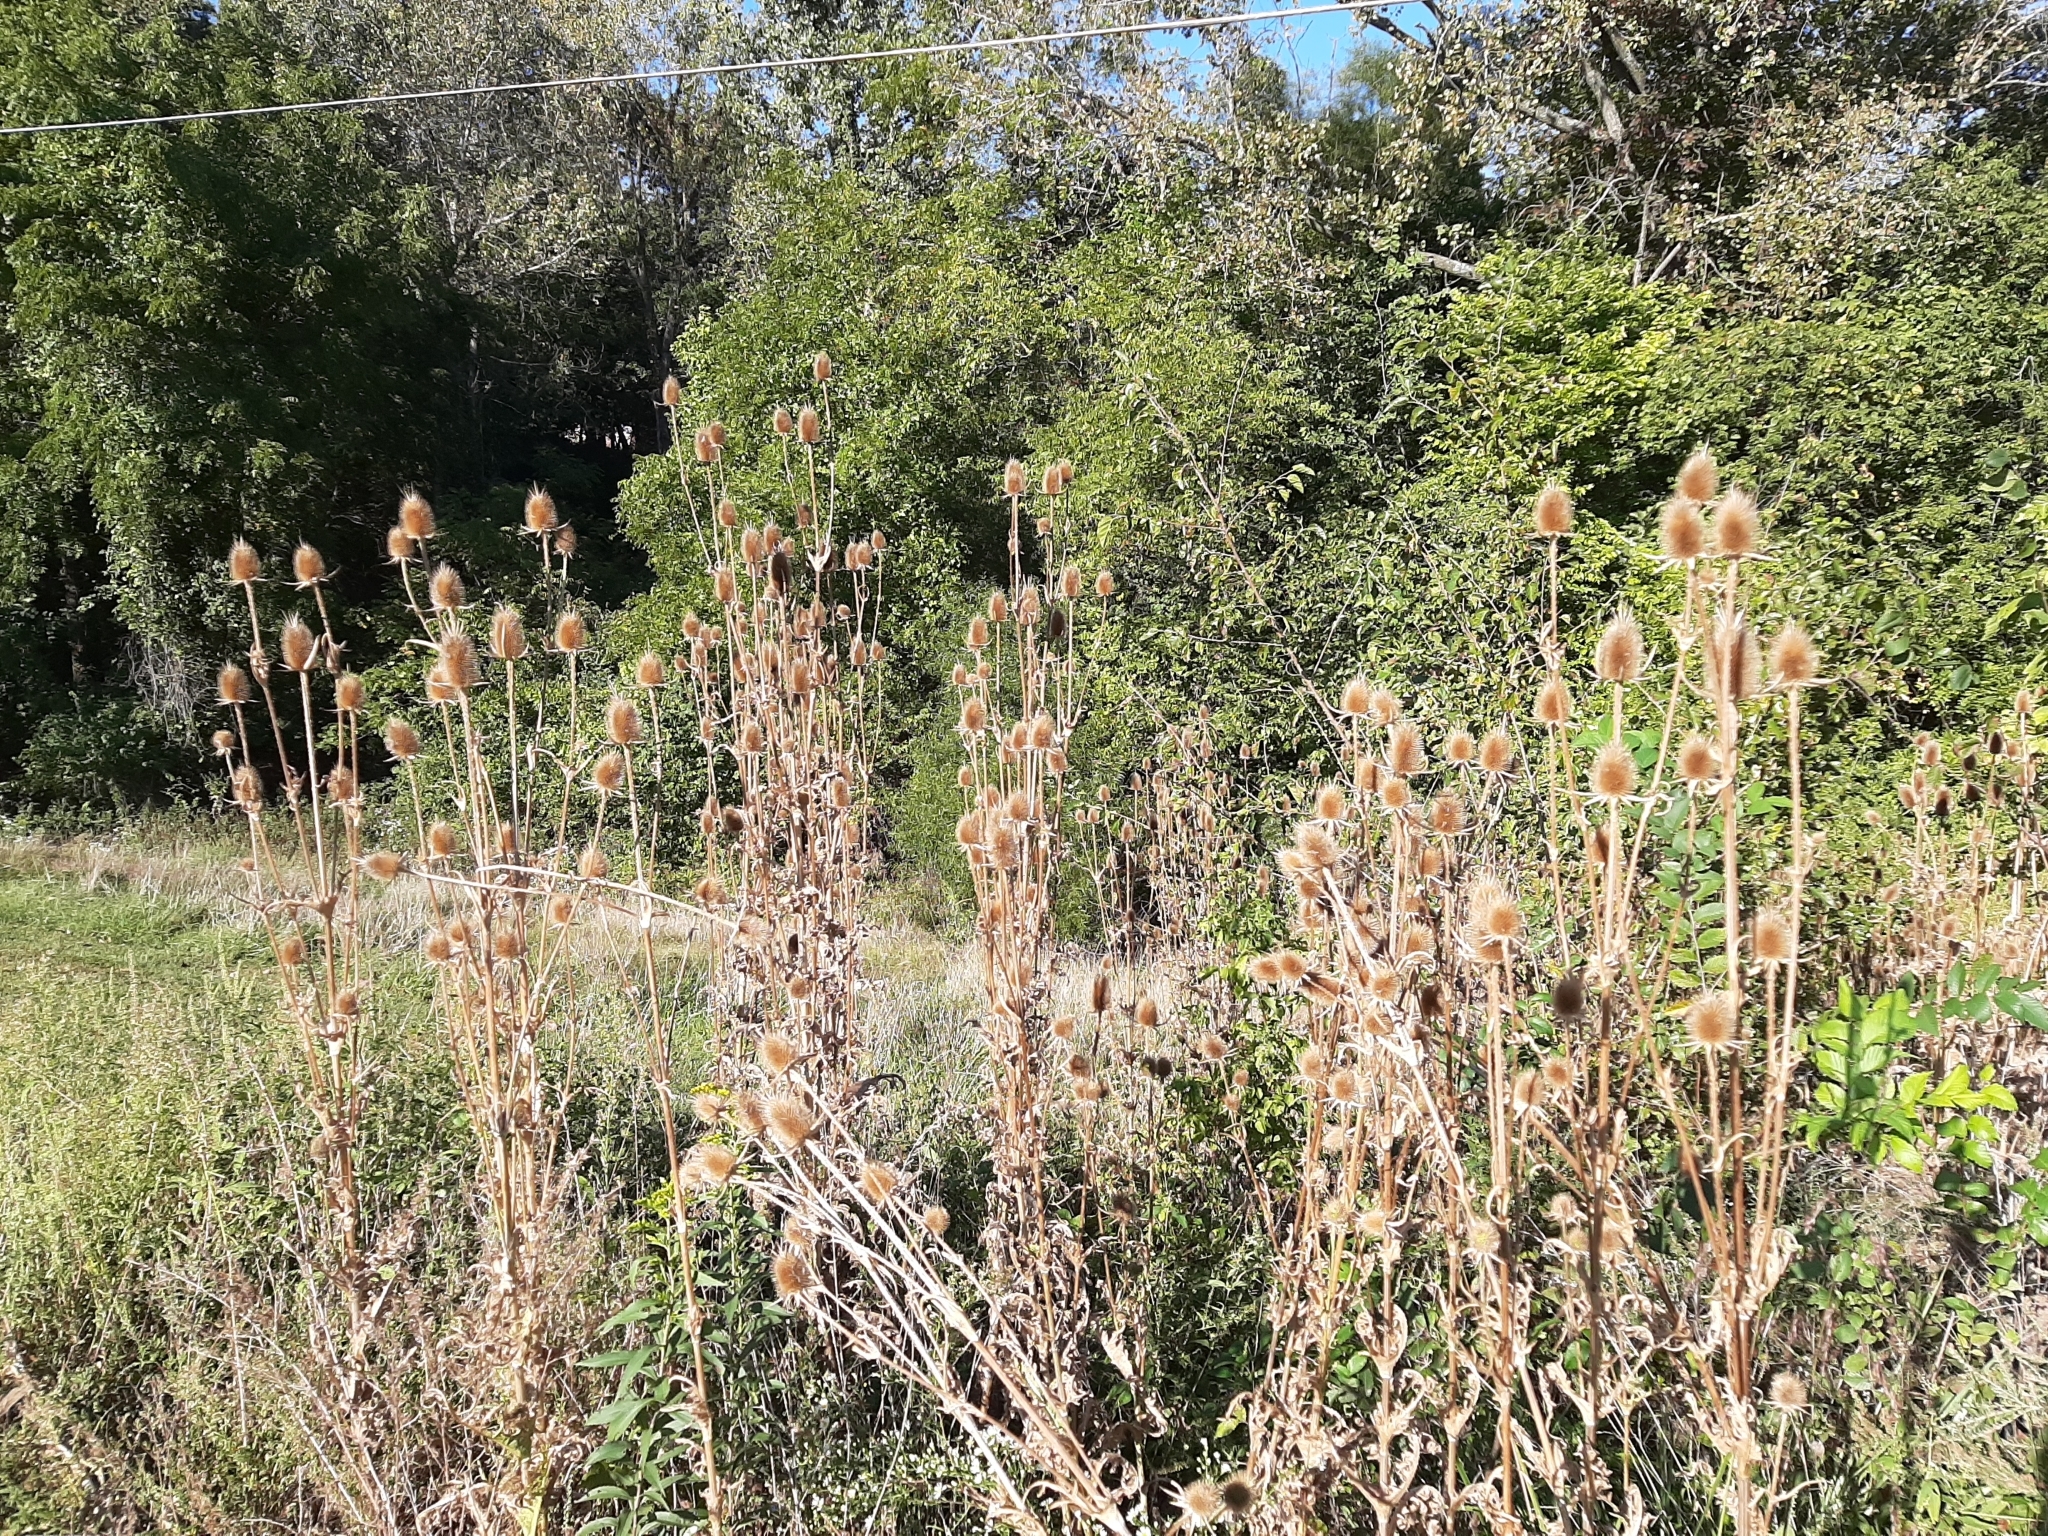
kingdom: Plantae
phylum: Tracheophyta
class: Magnoliopsida
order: Dipsacales
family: Caprifoliaceae
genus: Dipsacus
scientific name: Dipsacus laciniatus
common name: Cut-leaved teasel
